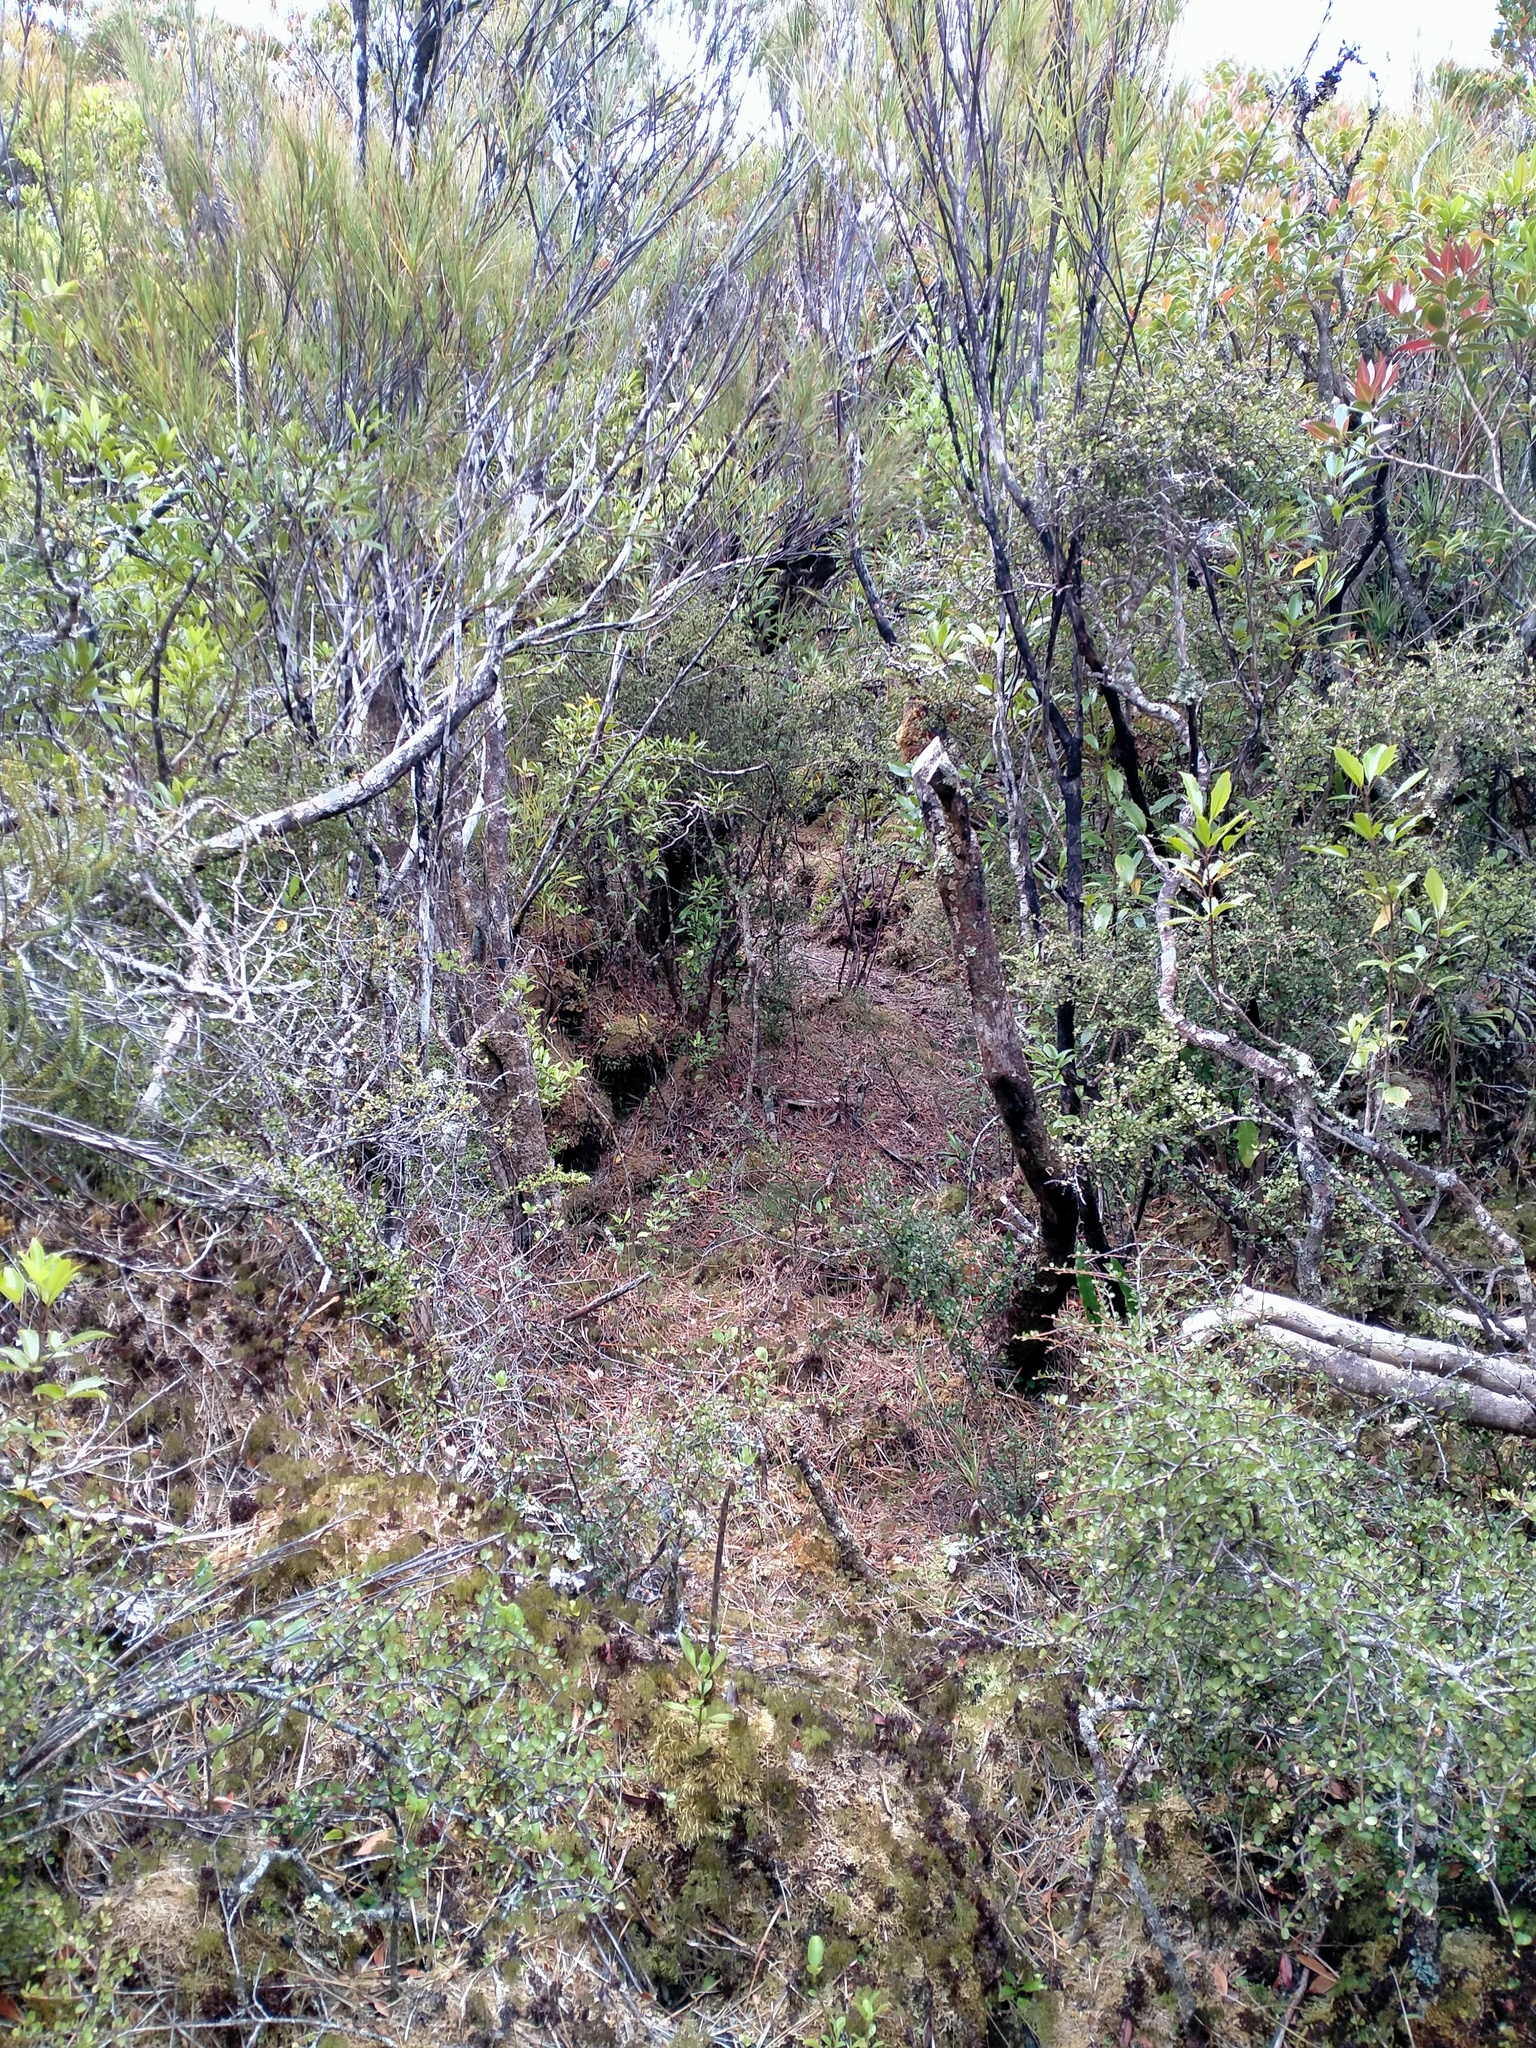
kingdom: Plantae
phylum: Tracheophyta
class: Magnoliopsida
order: Ericales
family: Ericaceae
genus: Dracophyllum
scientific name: Dracophyllum longifolium
